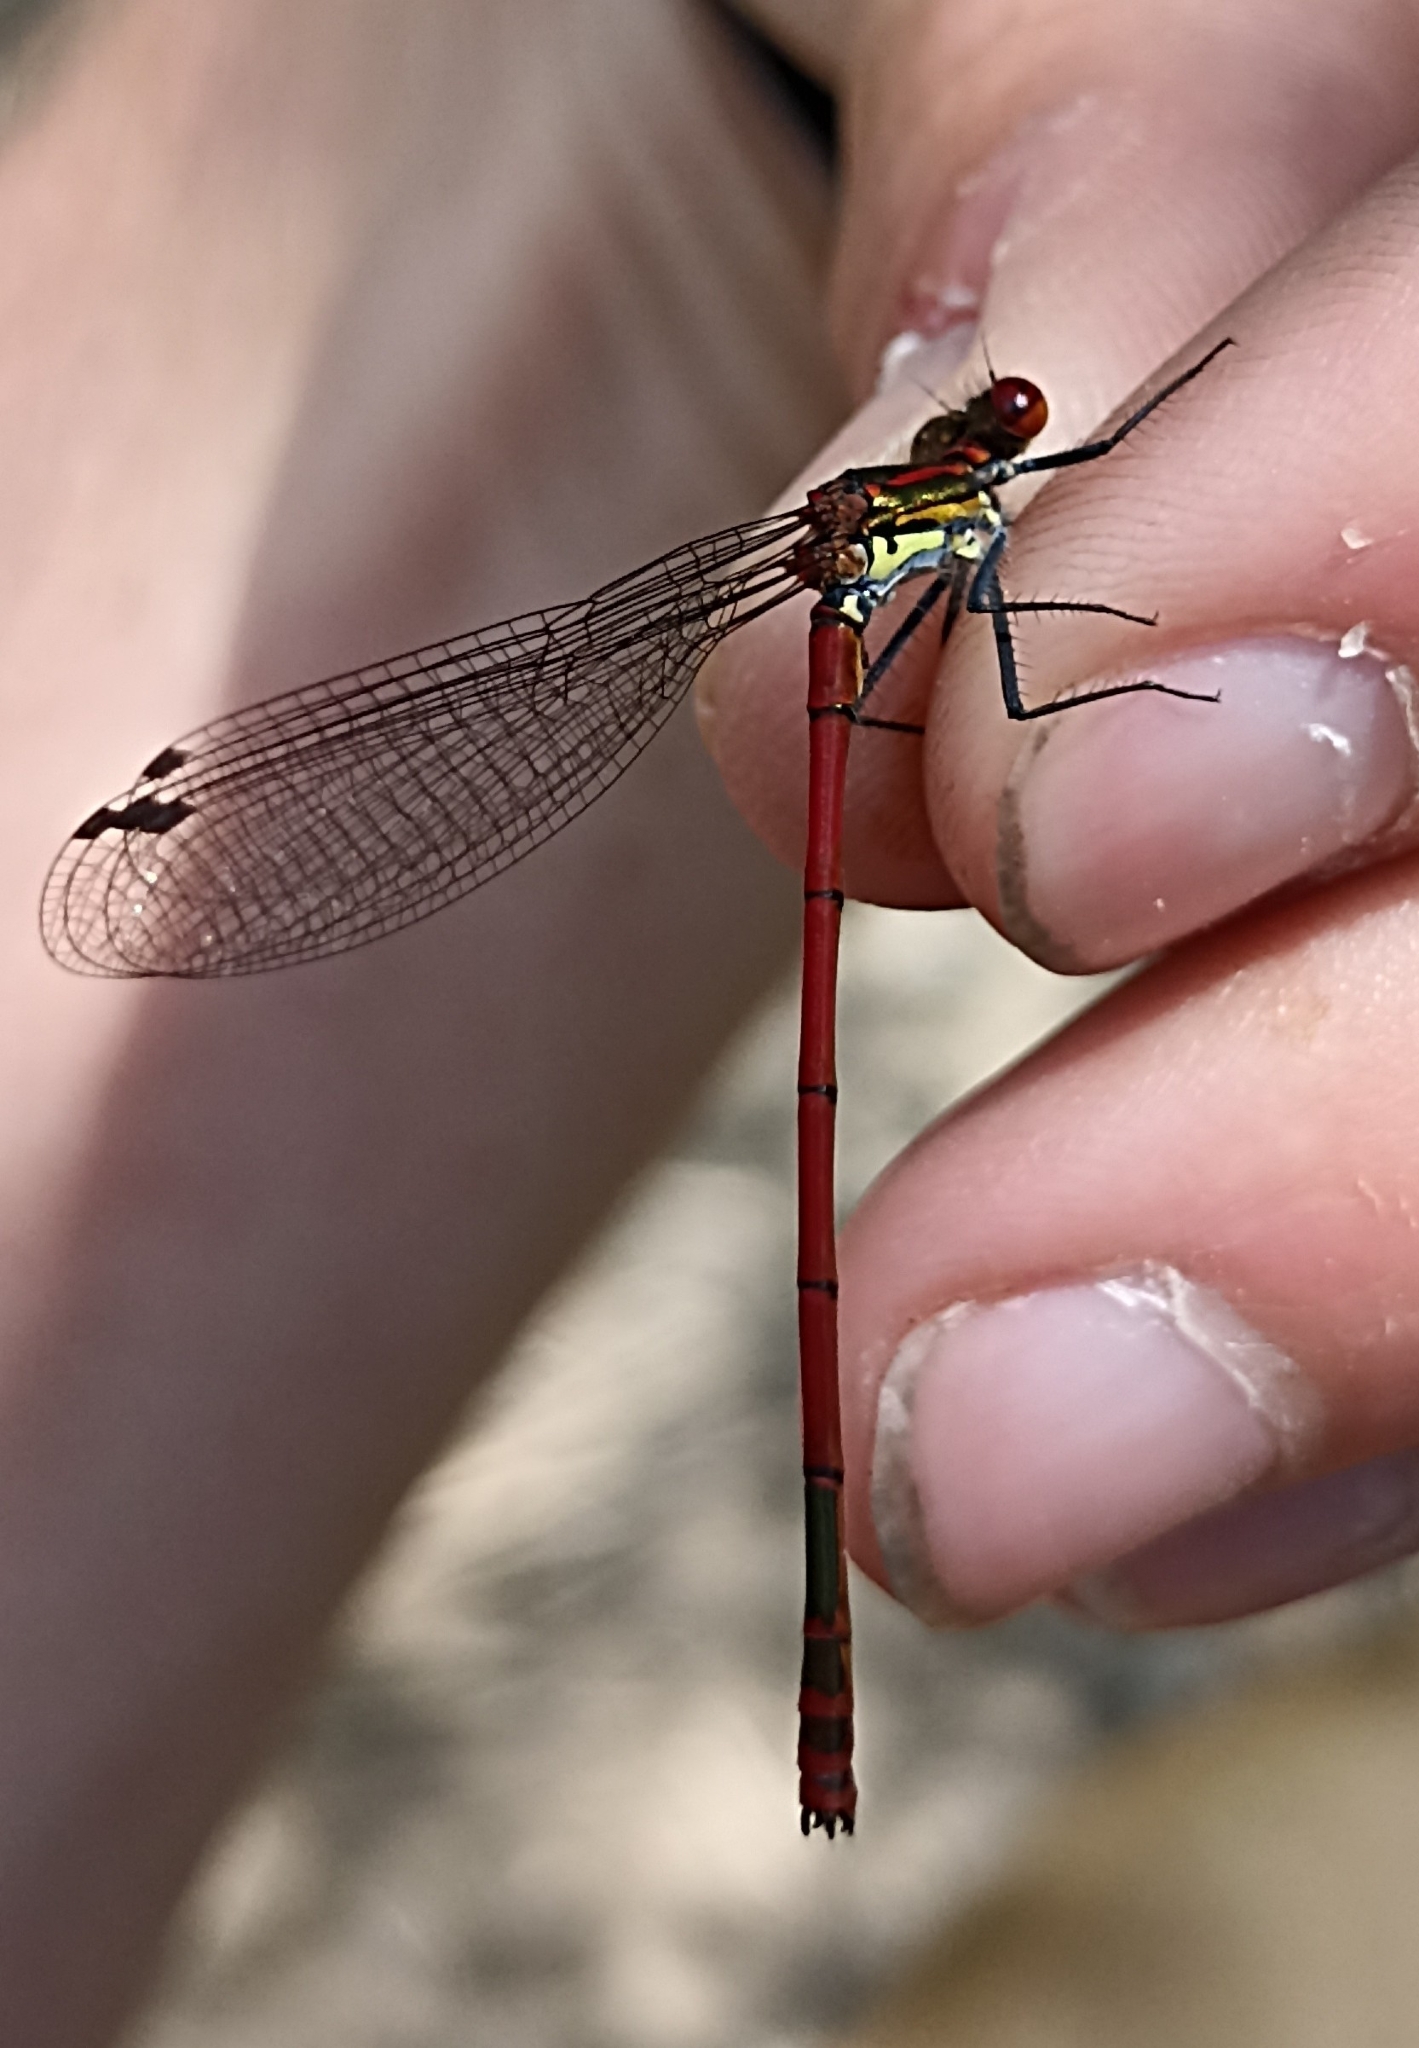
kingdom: Animalia
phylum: Arthropoda
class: Insecta
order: Odonata
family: Coenagrionidae
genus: Pyrrhosoma
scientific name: Pyrrhosoma nymphula
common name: Large red damsel
